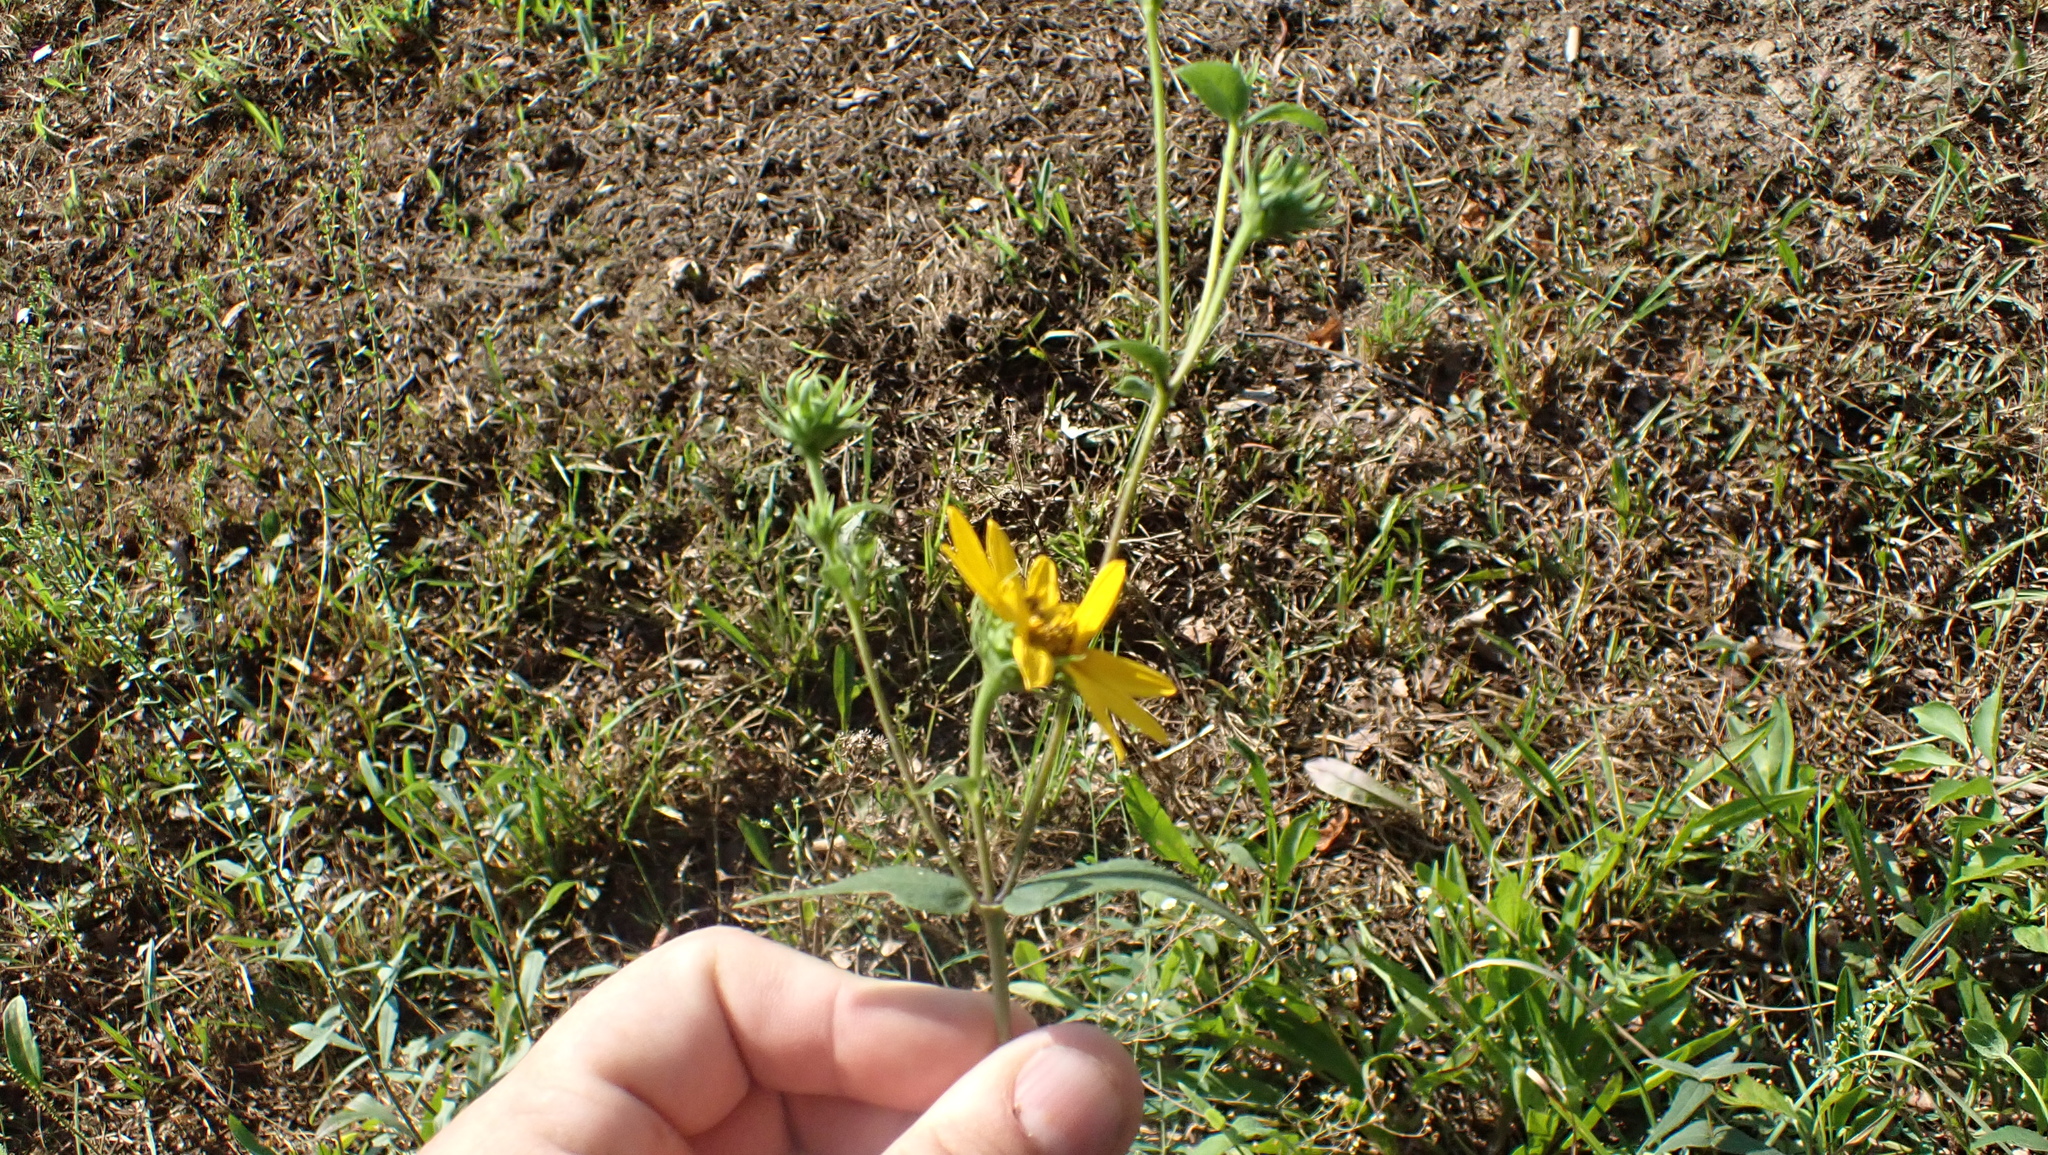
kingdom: Plantae
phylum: Tracheophyta
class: Magnoliopsida
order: Asterales
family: Asteraceae
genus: Helianthus
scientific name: Helianthus divaricatus
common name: Divergent sunflower
